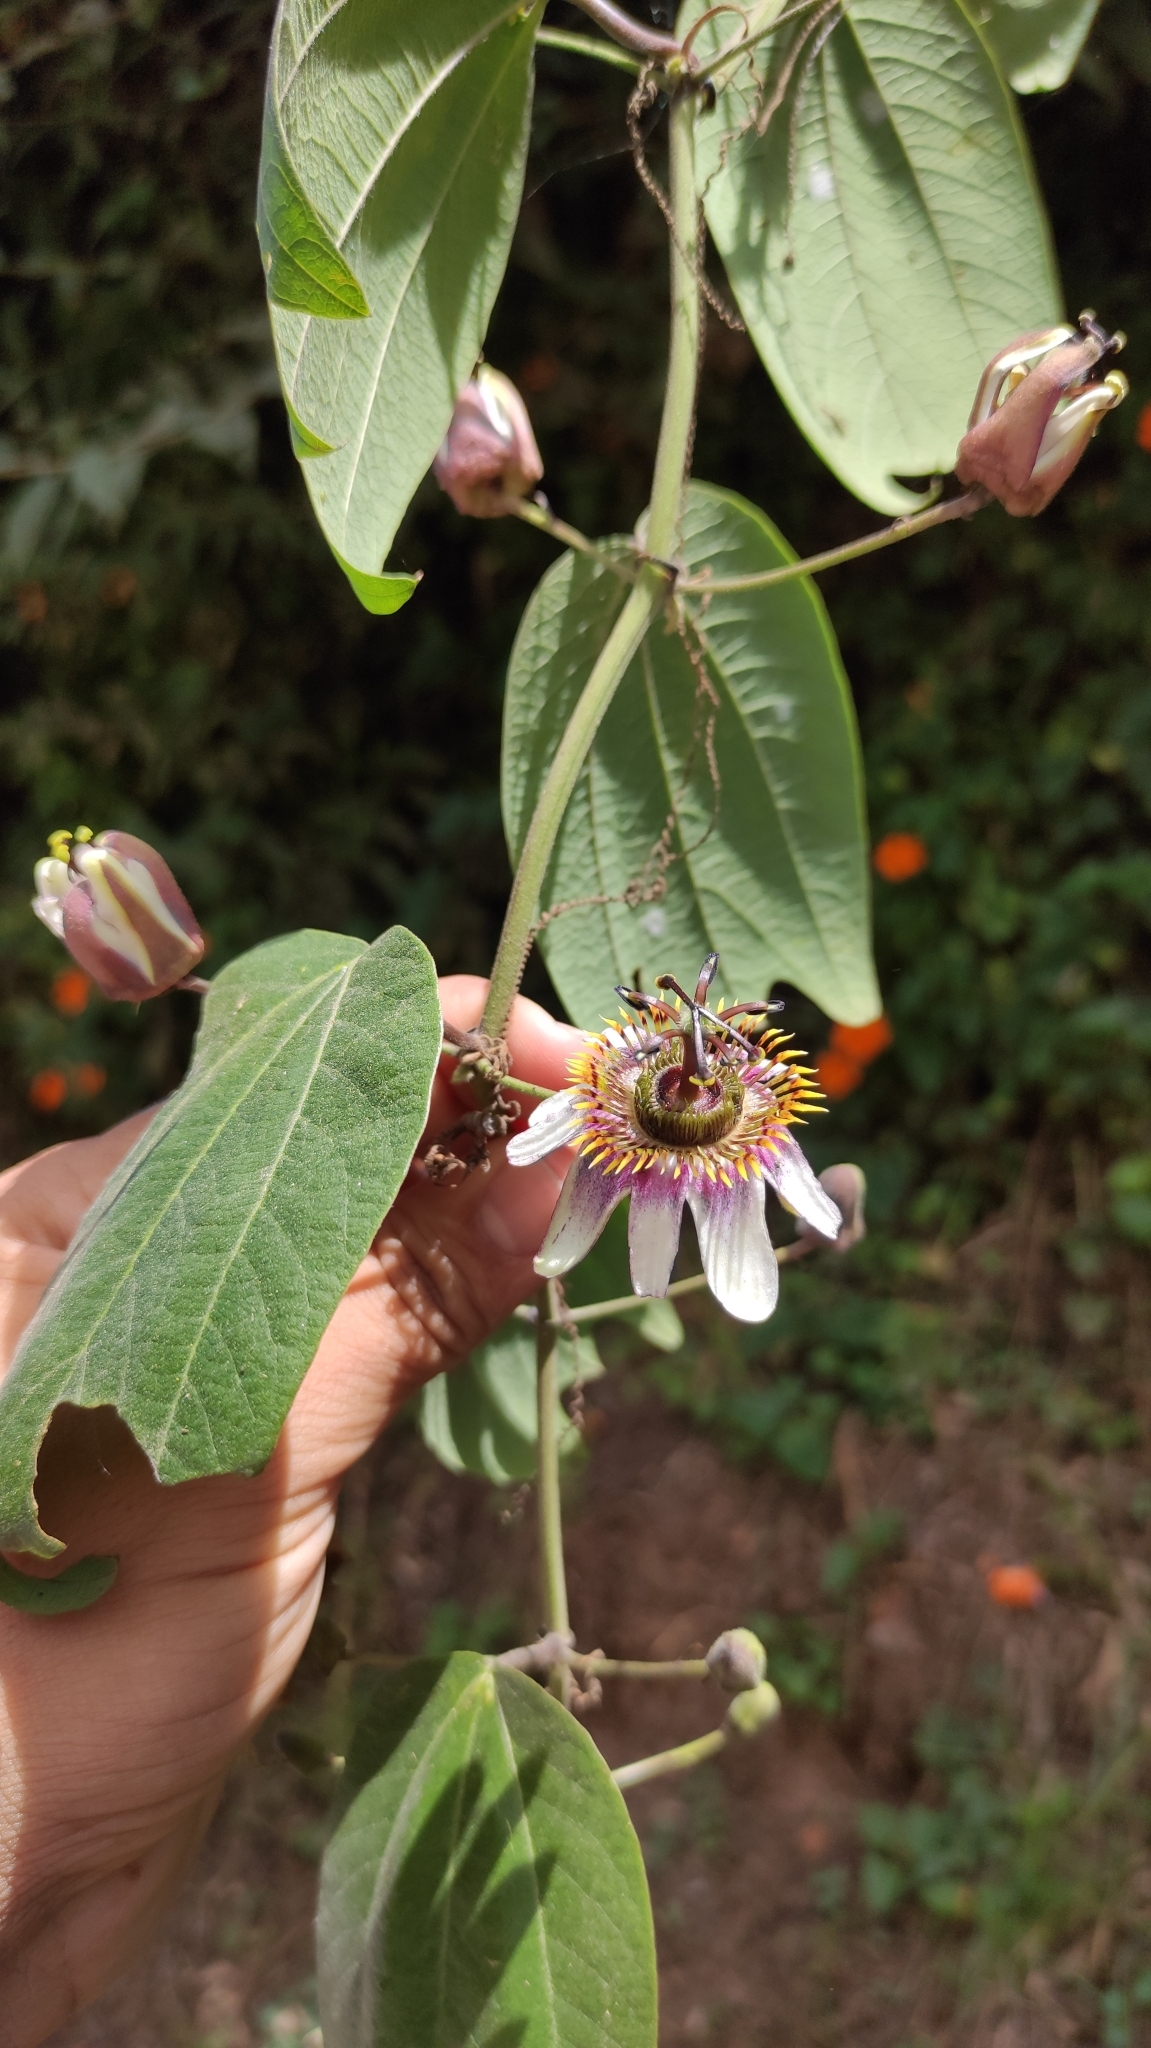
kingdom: Plantae
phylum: Tracheophyta
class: Magnoliopsida
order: Malpighiales
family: Passifloraceae
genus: Passiflora
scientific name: Passiflora alnifolia
